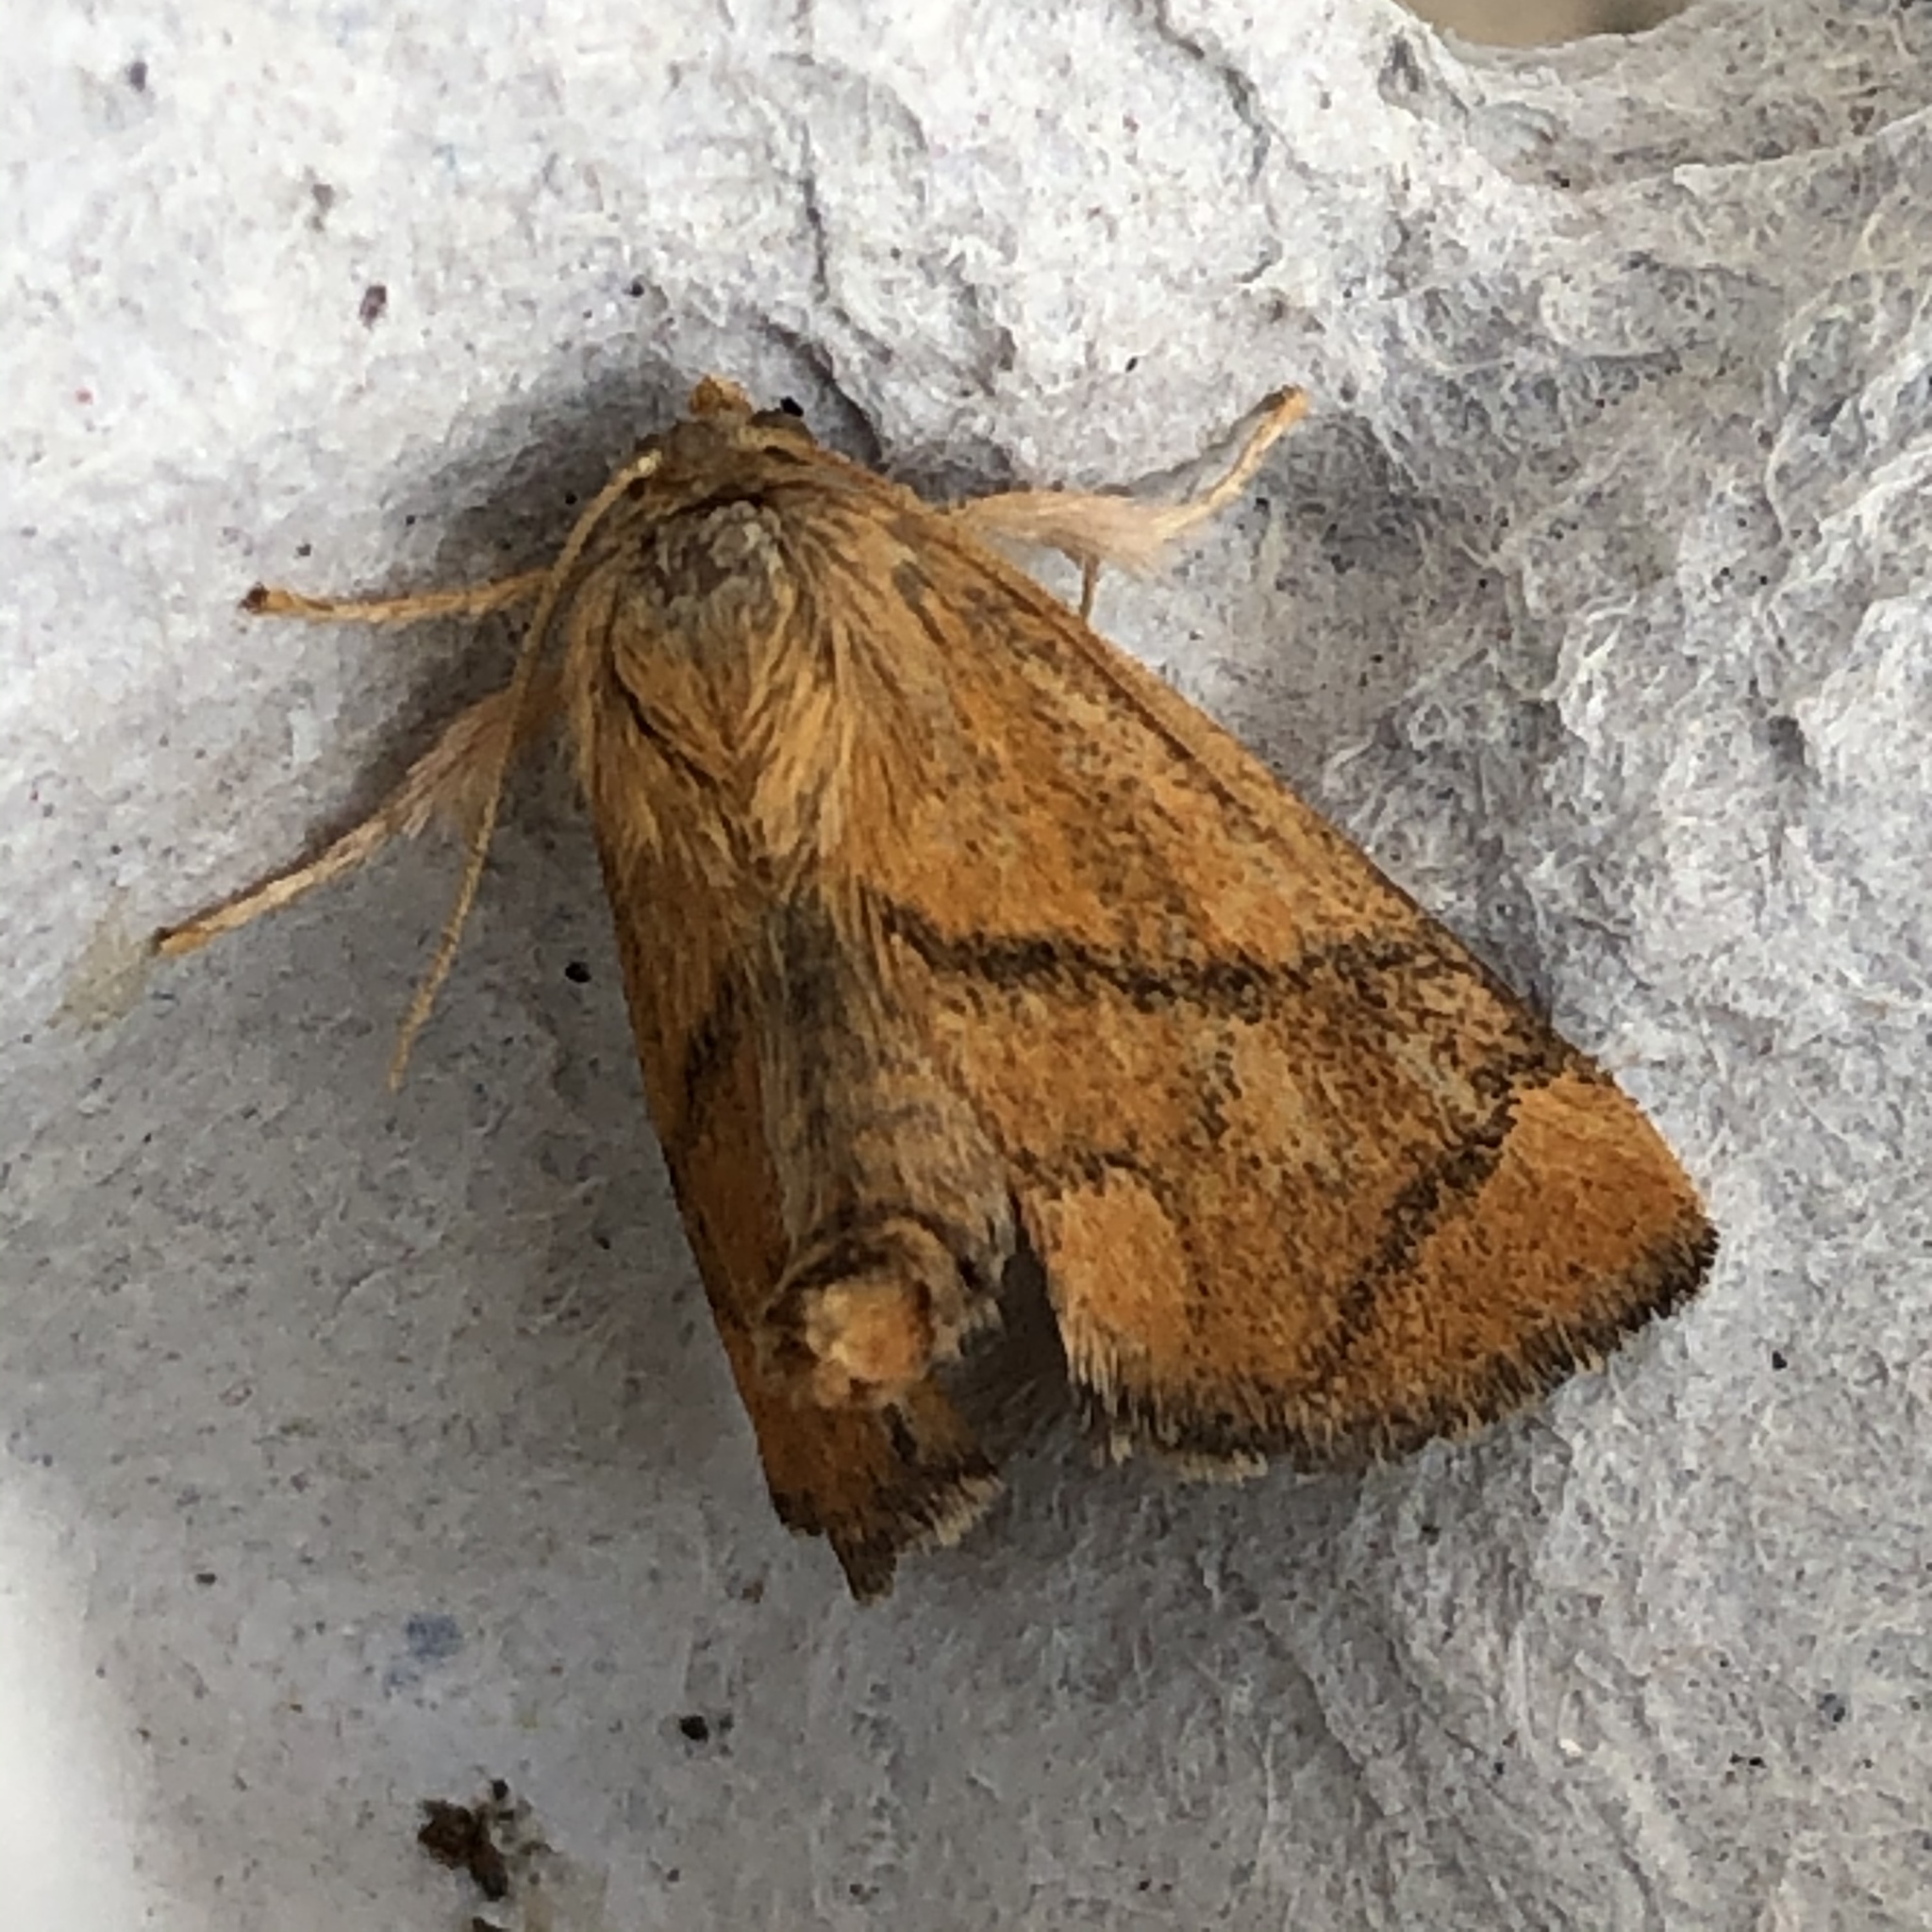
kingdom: Animalia
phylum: Arthropoda
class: Insecta
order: Lepidoptera
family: Limacodidae
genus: Apoda
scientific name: Apoda limacodes
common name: Festoon
